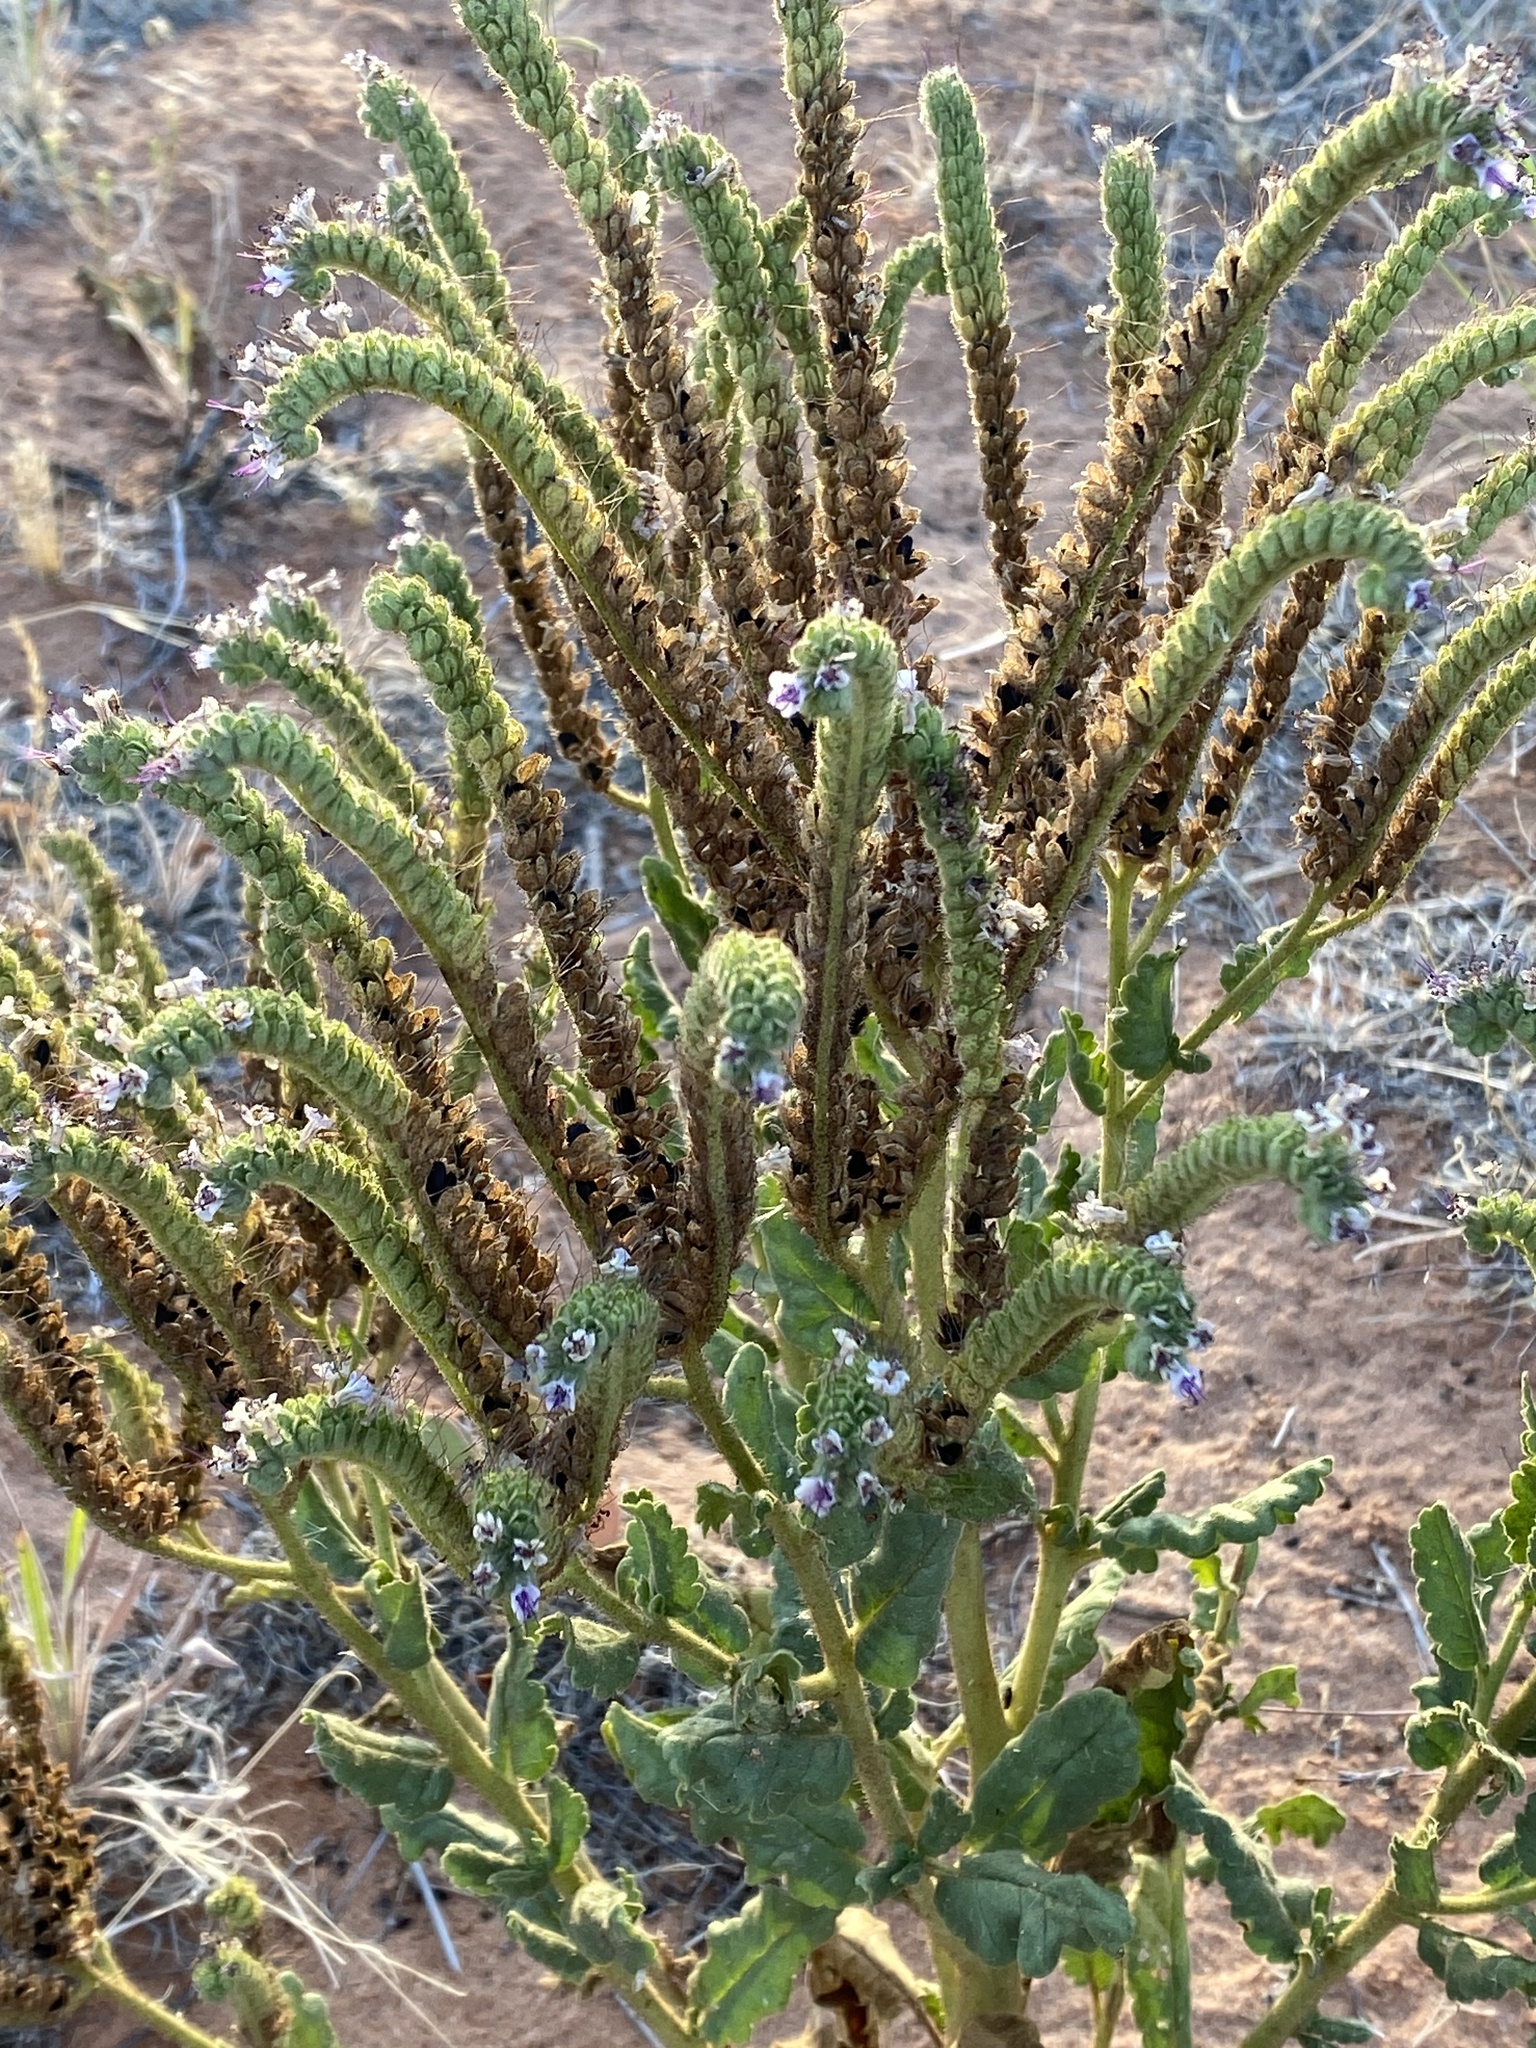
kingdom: Plantae
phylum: Tracheophyta
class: Magnoliopsida
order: Boraginales
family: Hydrophyllaceae
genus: Phacelia
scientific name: Phacelia integrifolia
